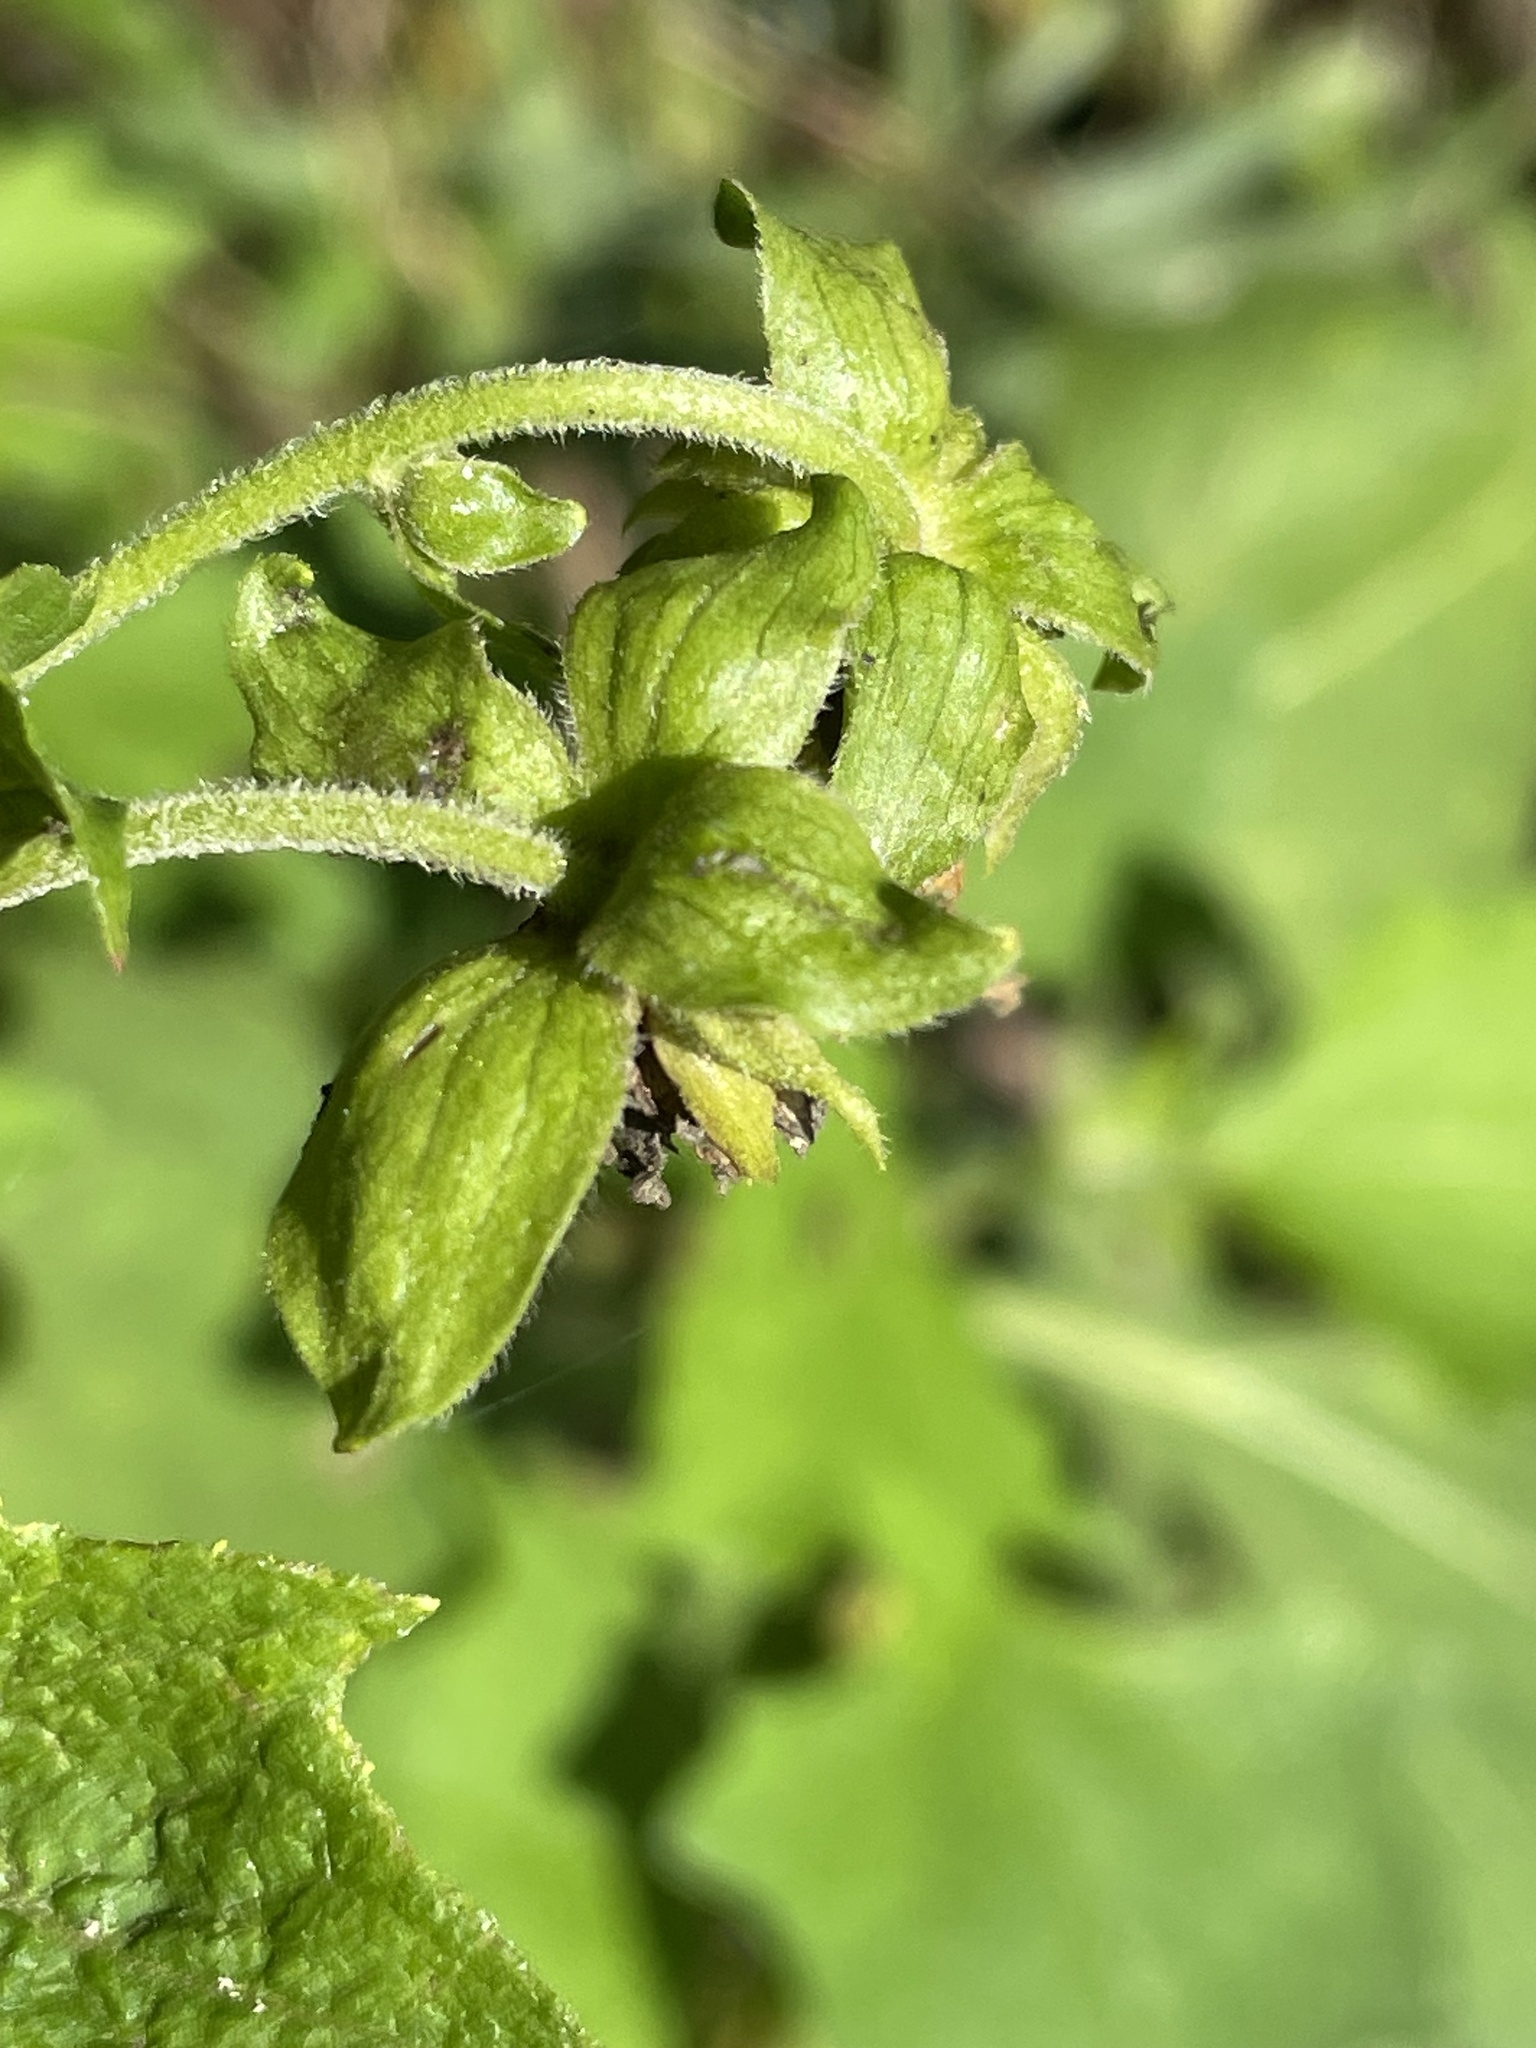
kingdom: Plantae
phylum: Tracheophyta
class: Magnoliopsida
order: Asterales
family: Asteraceae
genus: Smallanthus
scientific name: Smallanthus uvedalia
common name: Bear's-foot
